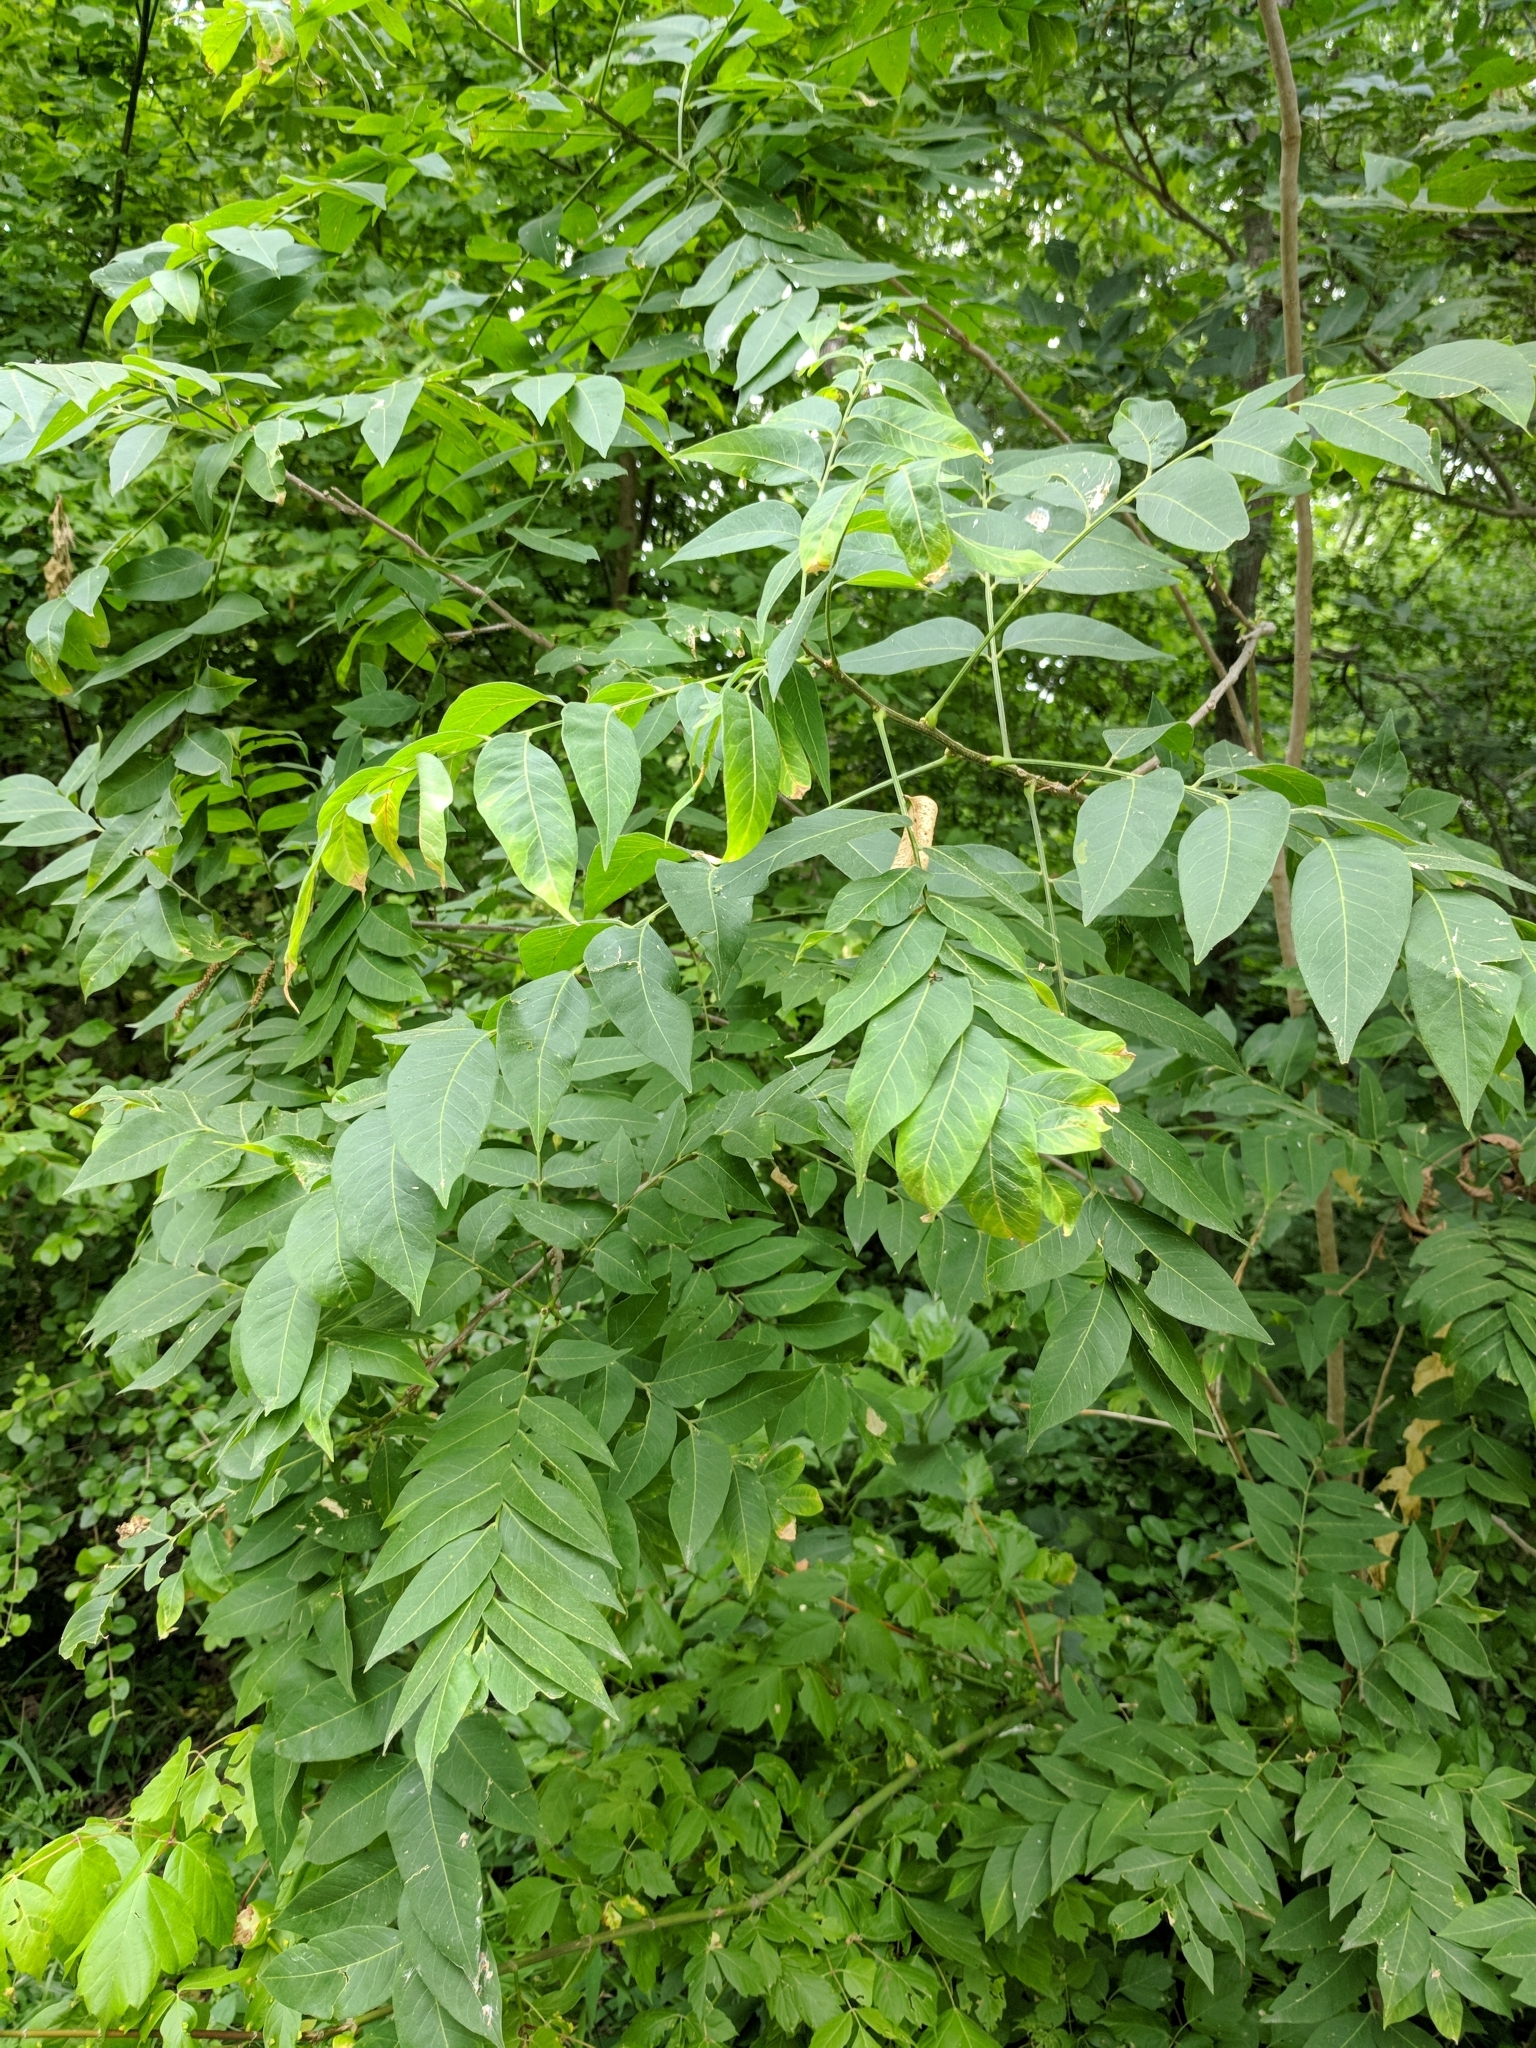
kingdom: Plantae
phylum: Tracheophyta
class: Magnoliopsida
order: Sapindales
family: Sapindaceae
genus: Sapindus
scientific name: Sapindus drummondii
